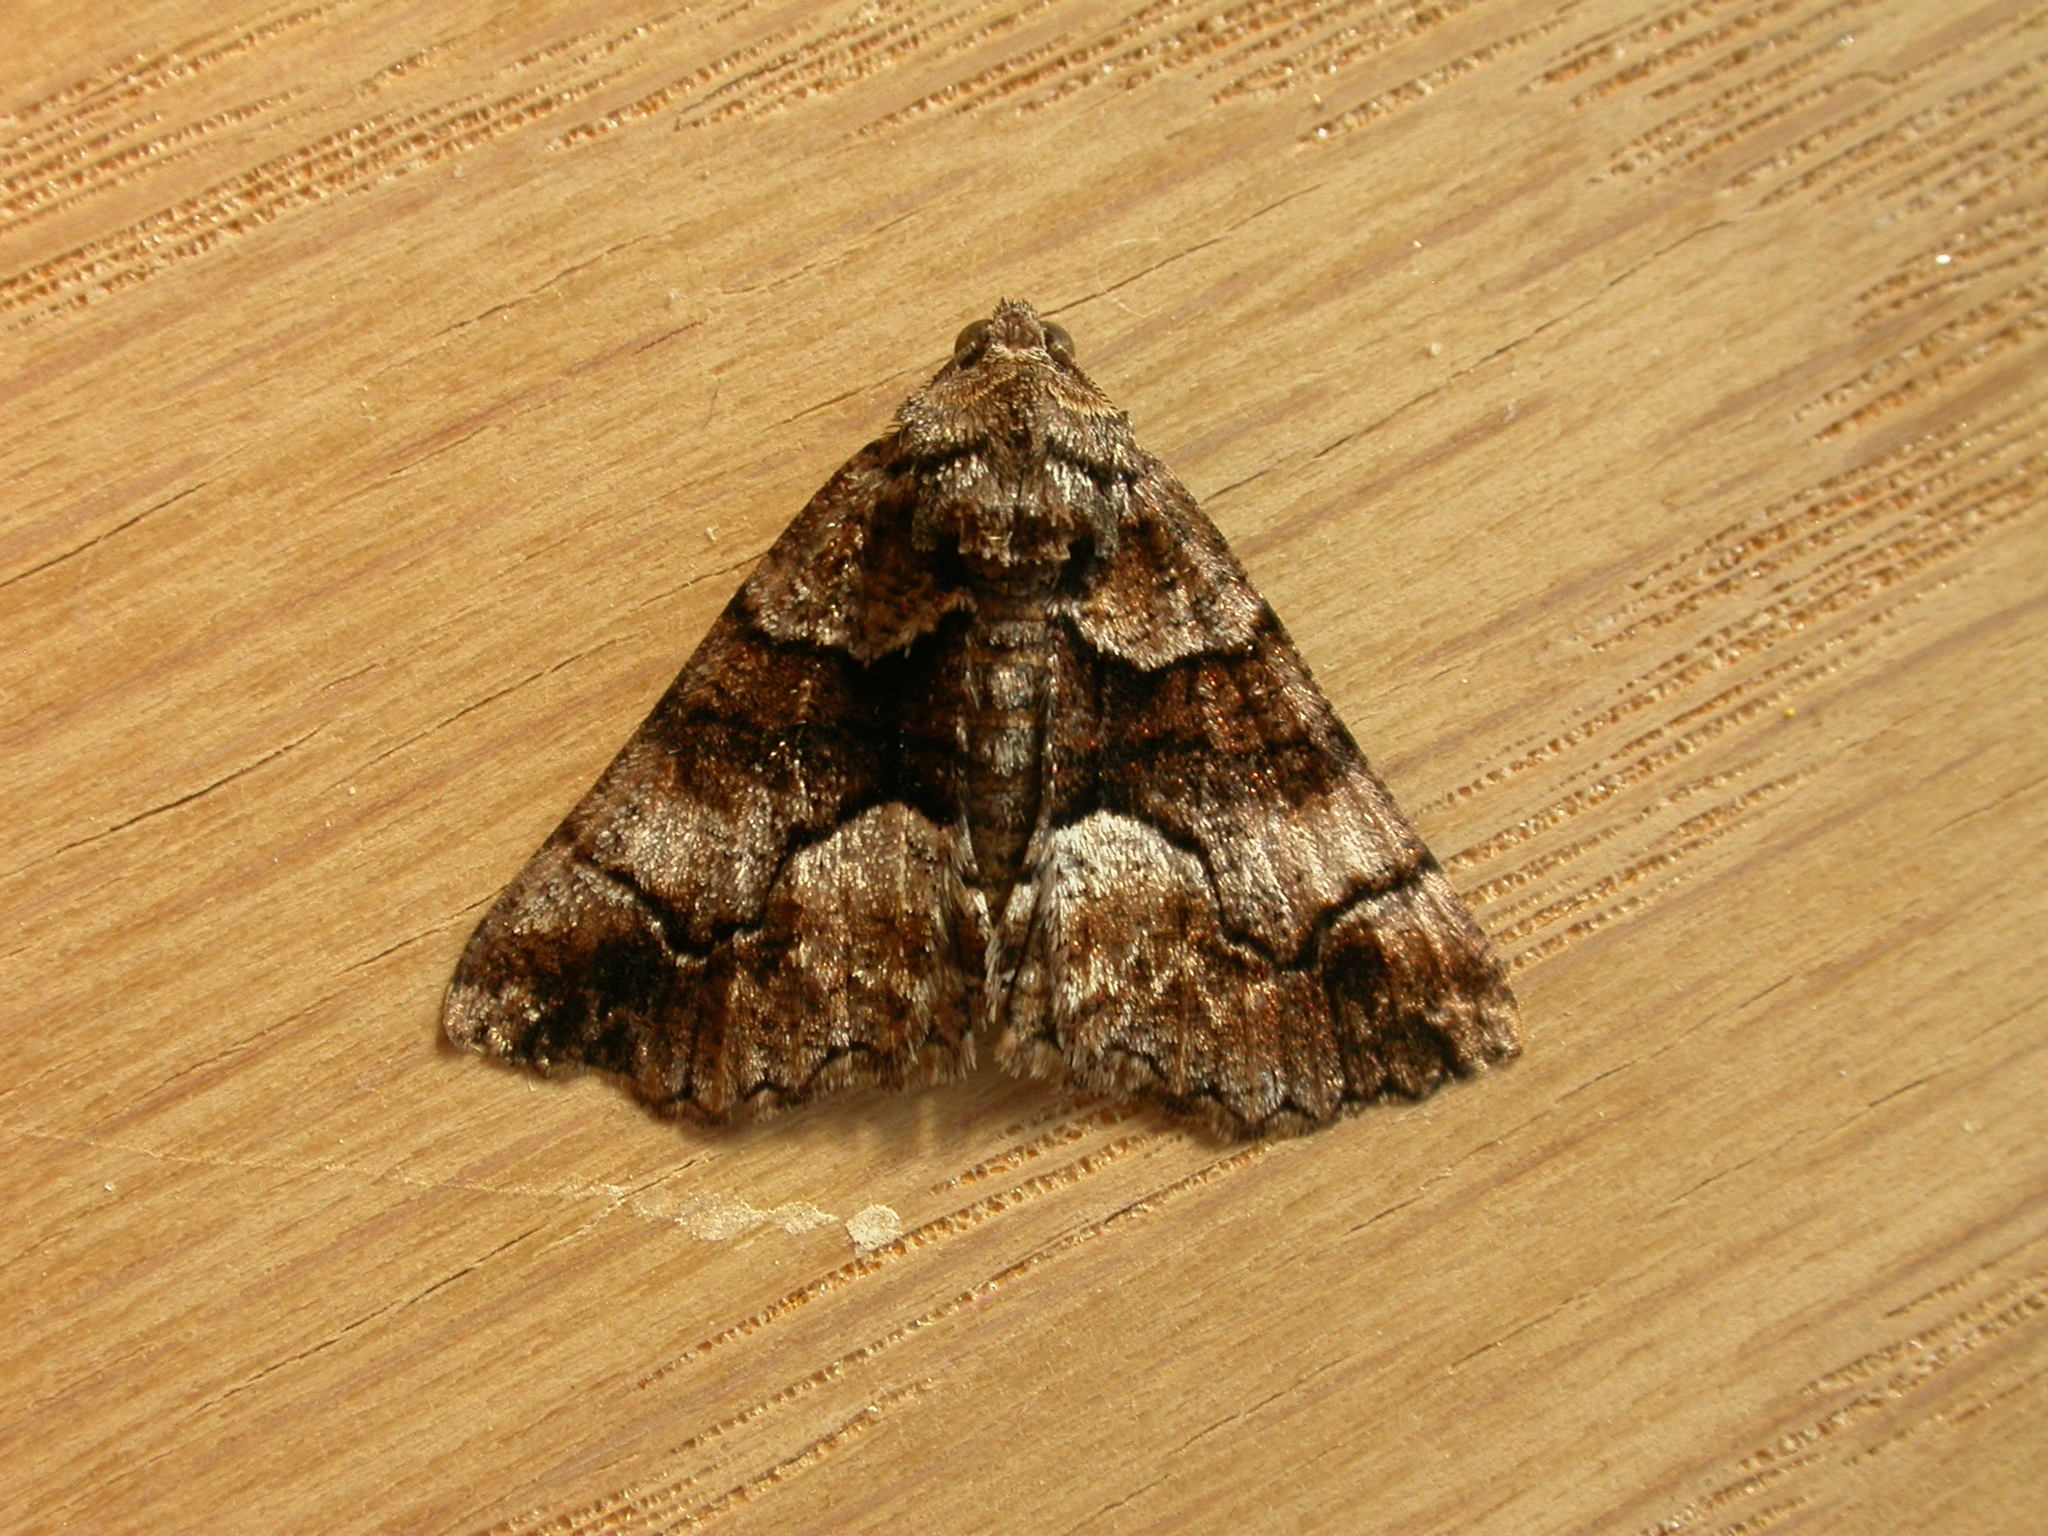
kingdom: Animalia
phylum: Arthropoda
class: Insecta
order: Lepidoptera
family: Geometridae
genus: Gastrina
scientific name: Gastrina cristaria
